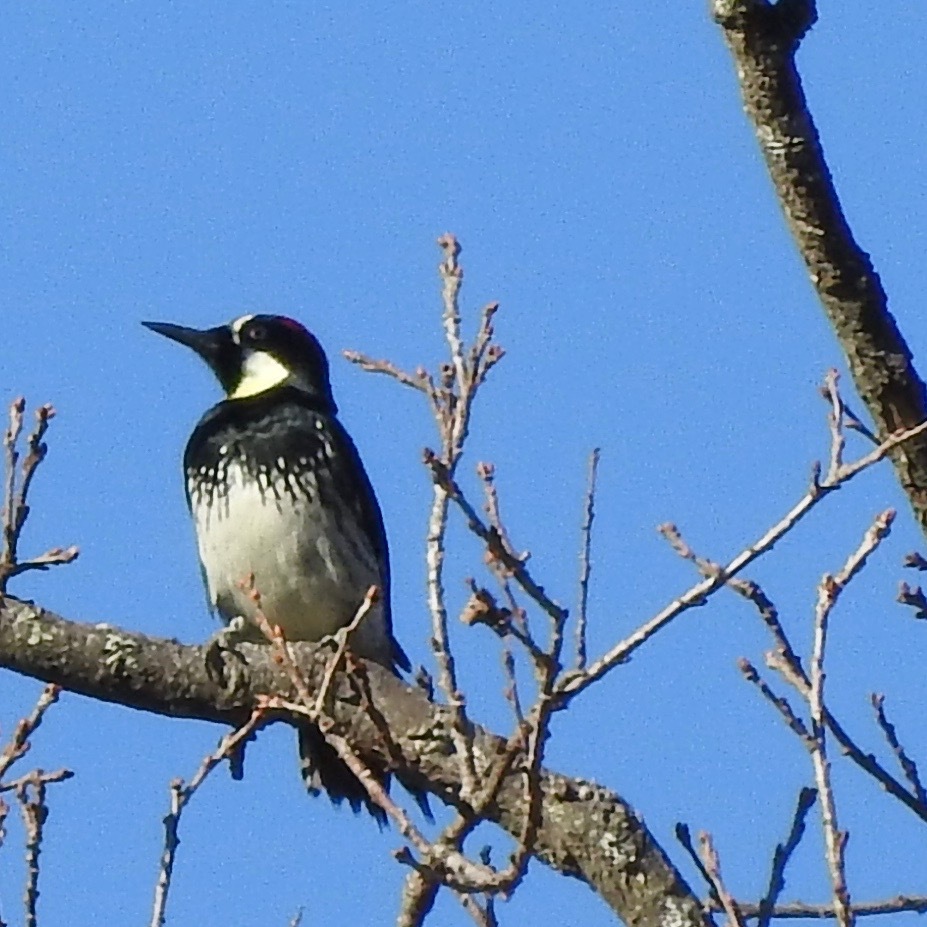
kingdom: Animalia
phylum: Chordata
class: Aves
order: Piciformes
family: Picidae
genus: Melanerpes
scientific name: Melanerpes formicivorus
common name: Acorn woodpecker
